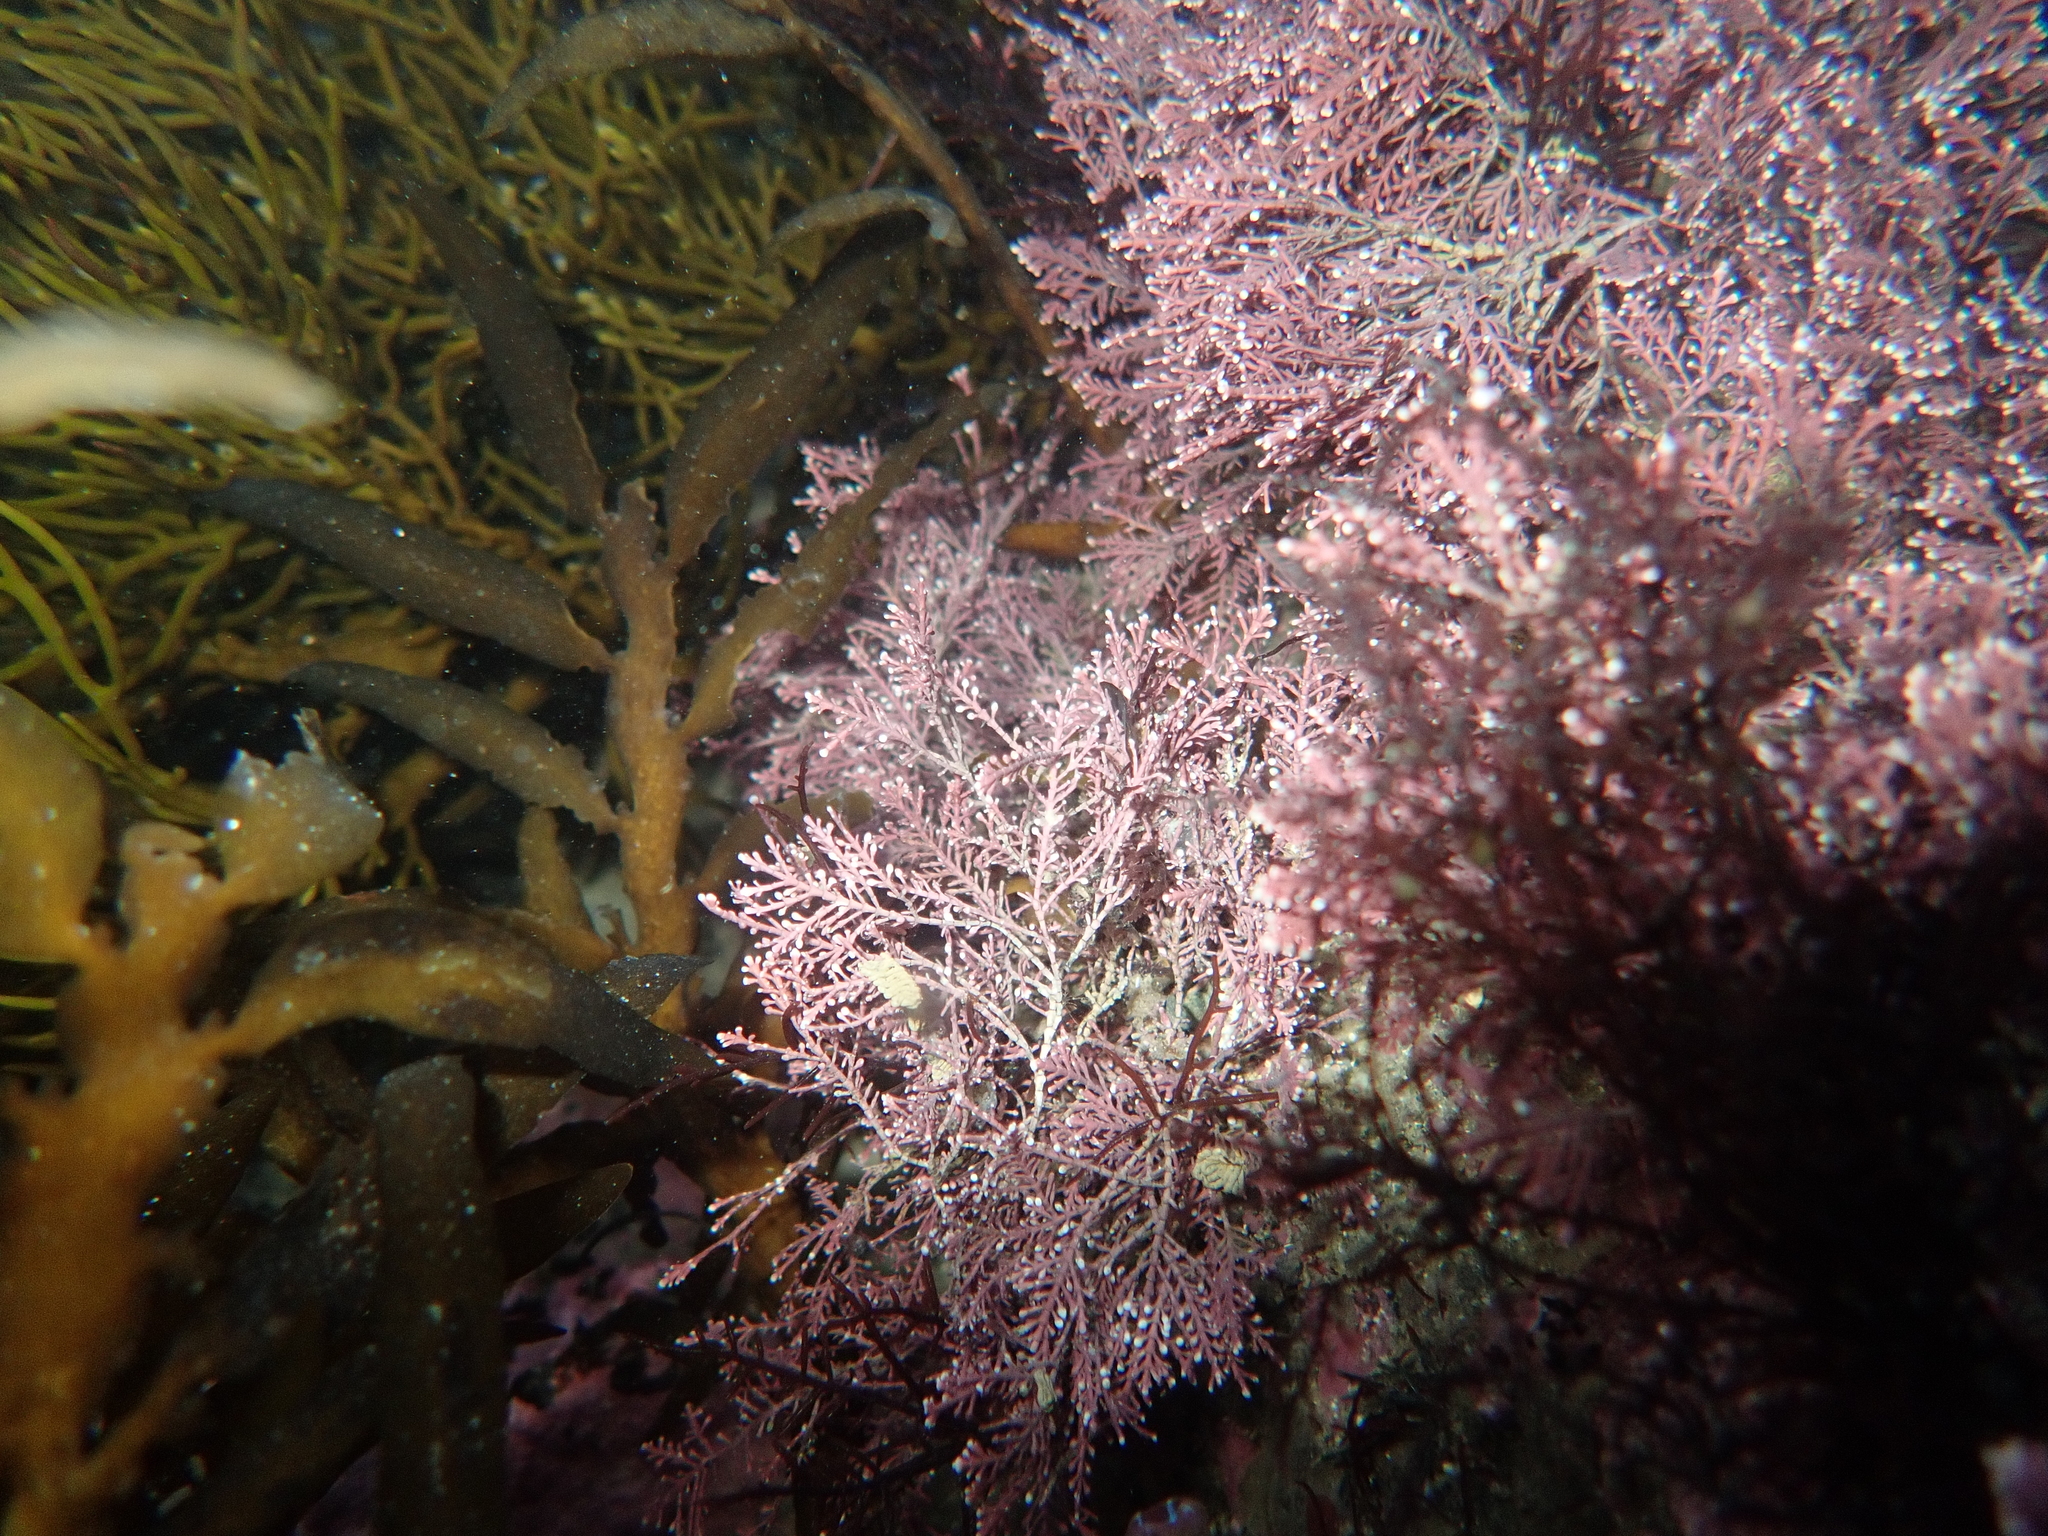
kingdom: Plantae
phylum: Rhodophyta
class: Florideophyceae
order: Corallinales
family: Corallinaceae
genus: Corallina
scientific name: Corallina officinalis
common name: Coral weed
